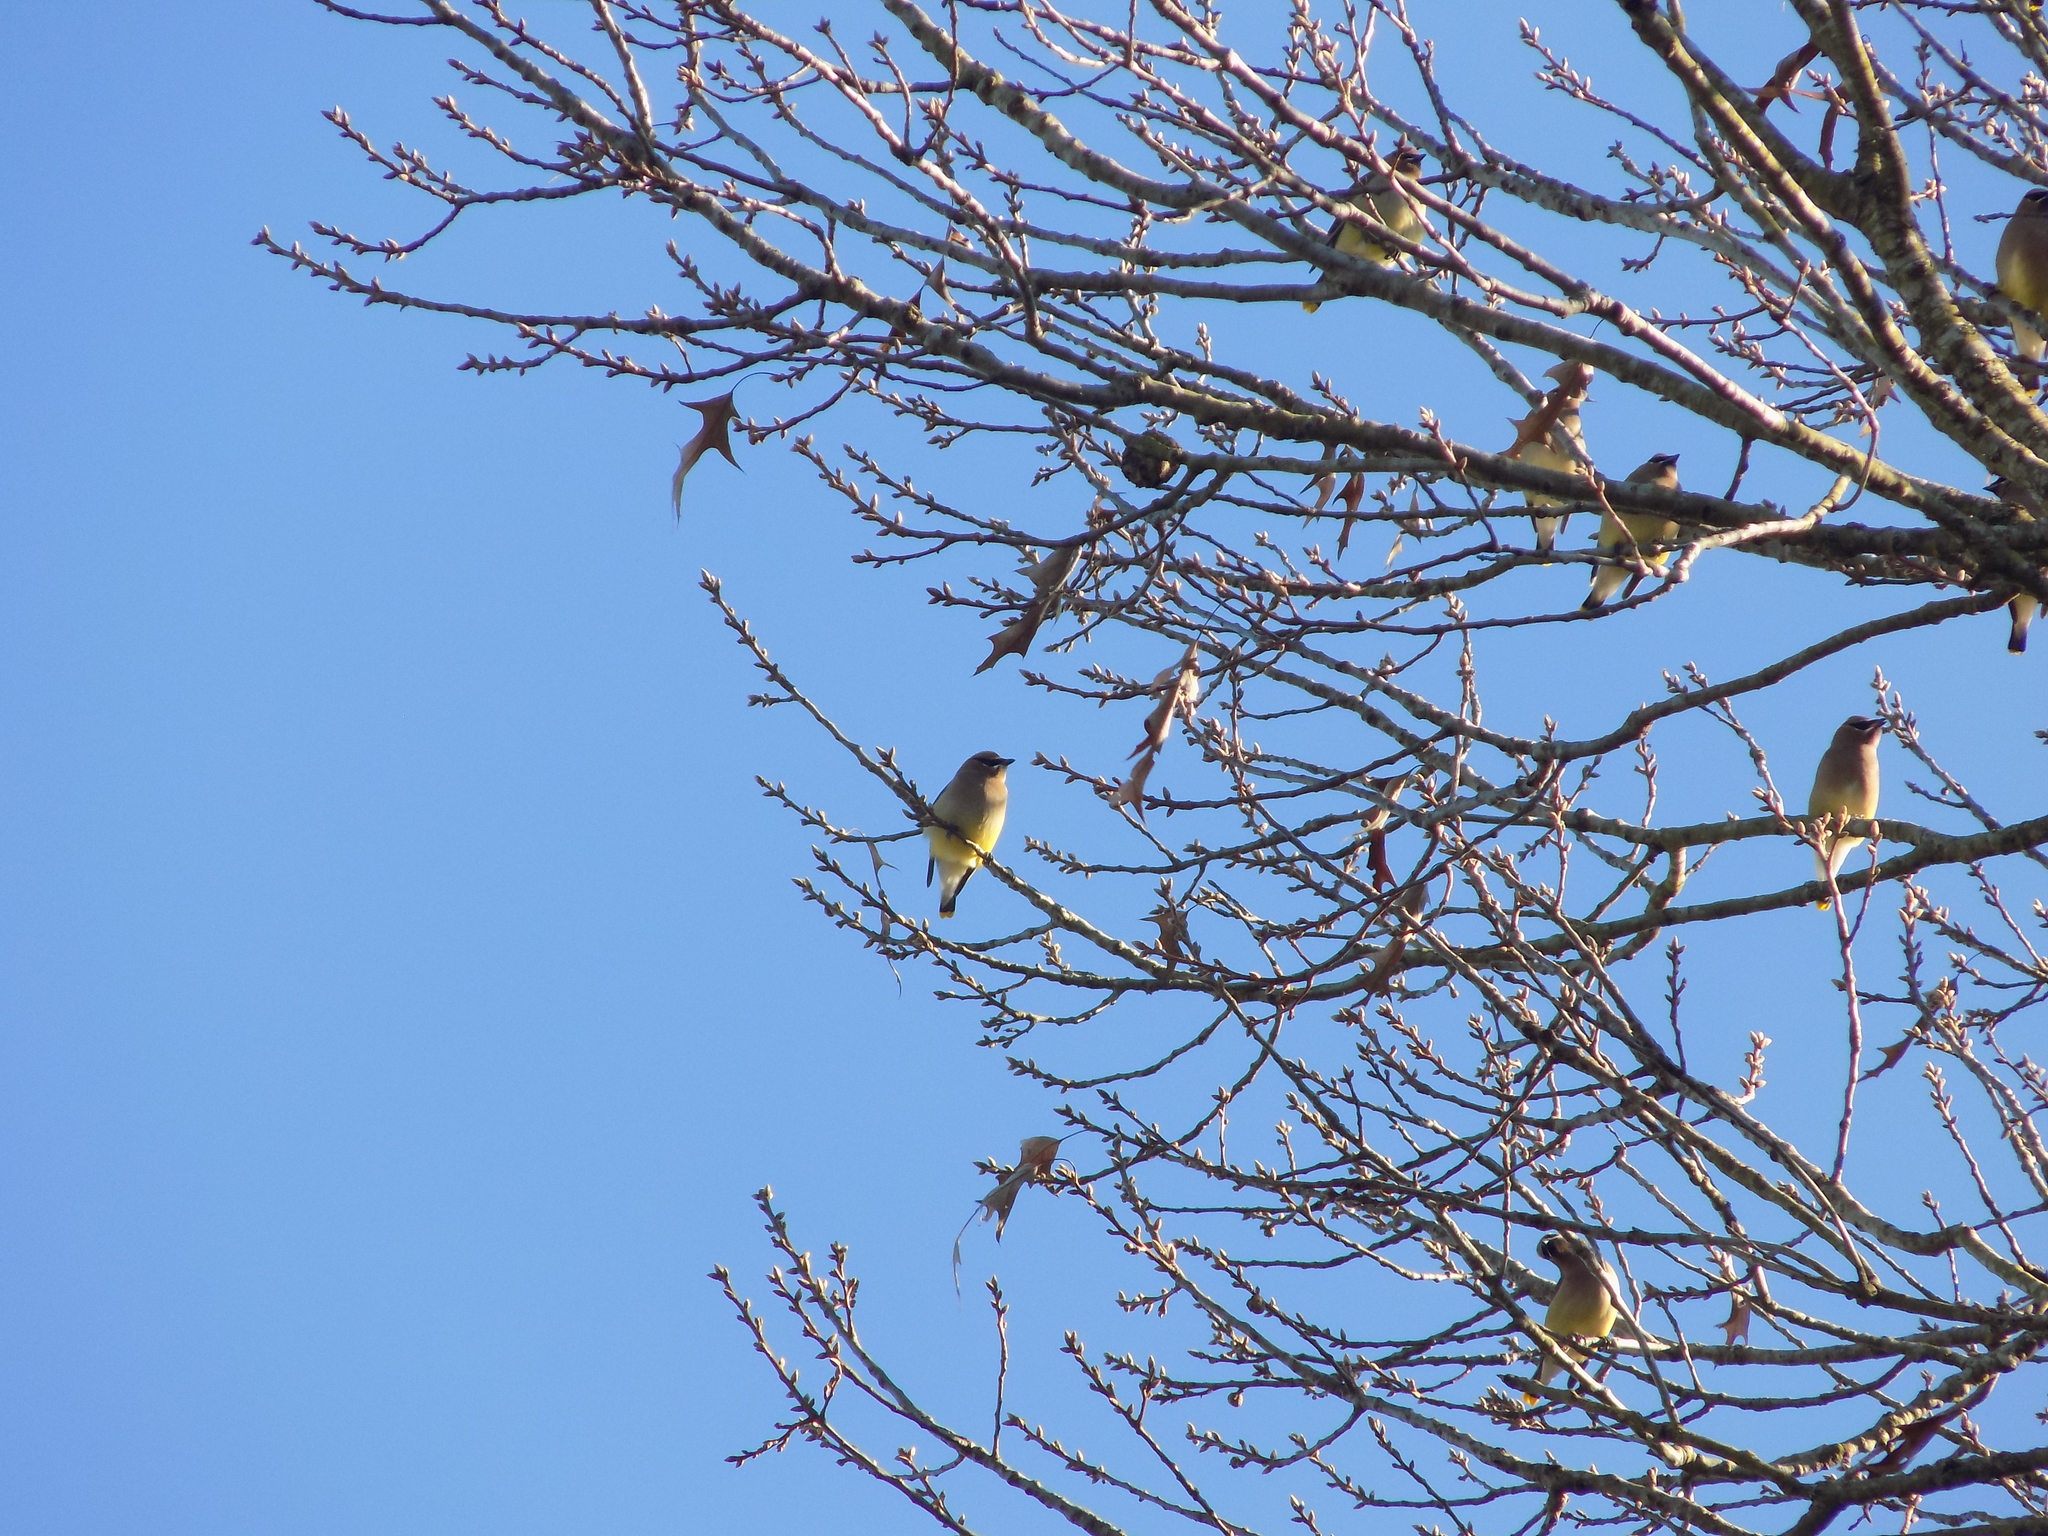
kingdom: Animalia
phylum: Chordata
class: Aves
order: Passeriformes
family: Bombycillidae
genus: Bombycilla
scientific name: Bombycilla cedrorum
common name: Cedar waxwing
